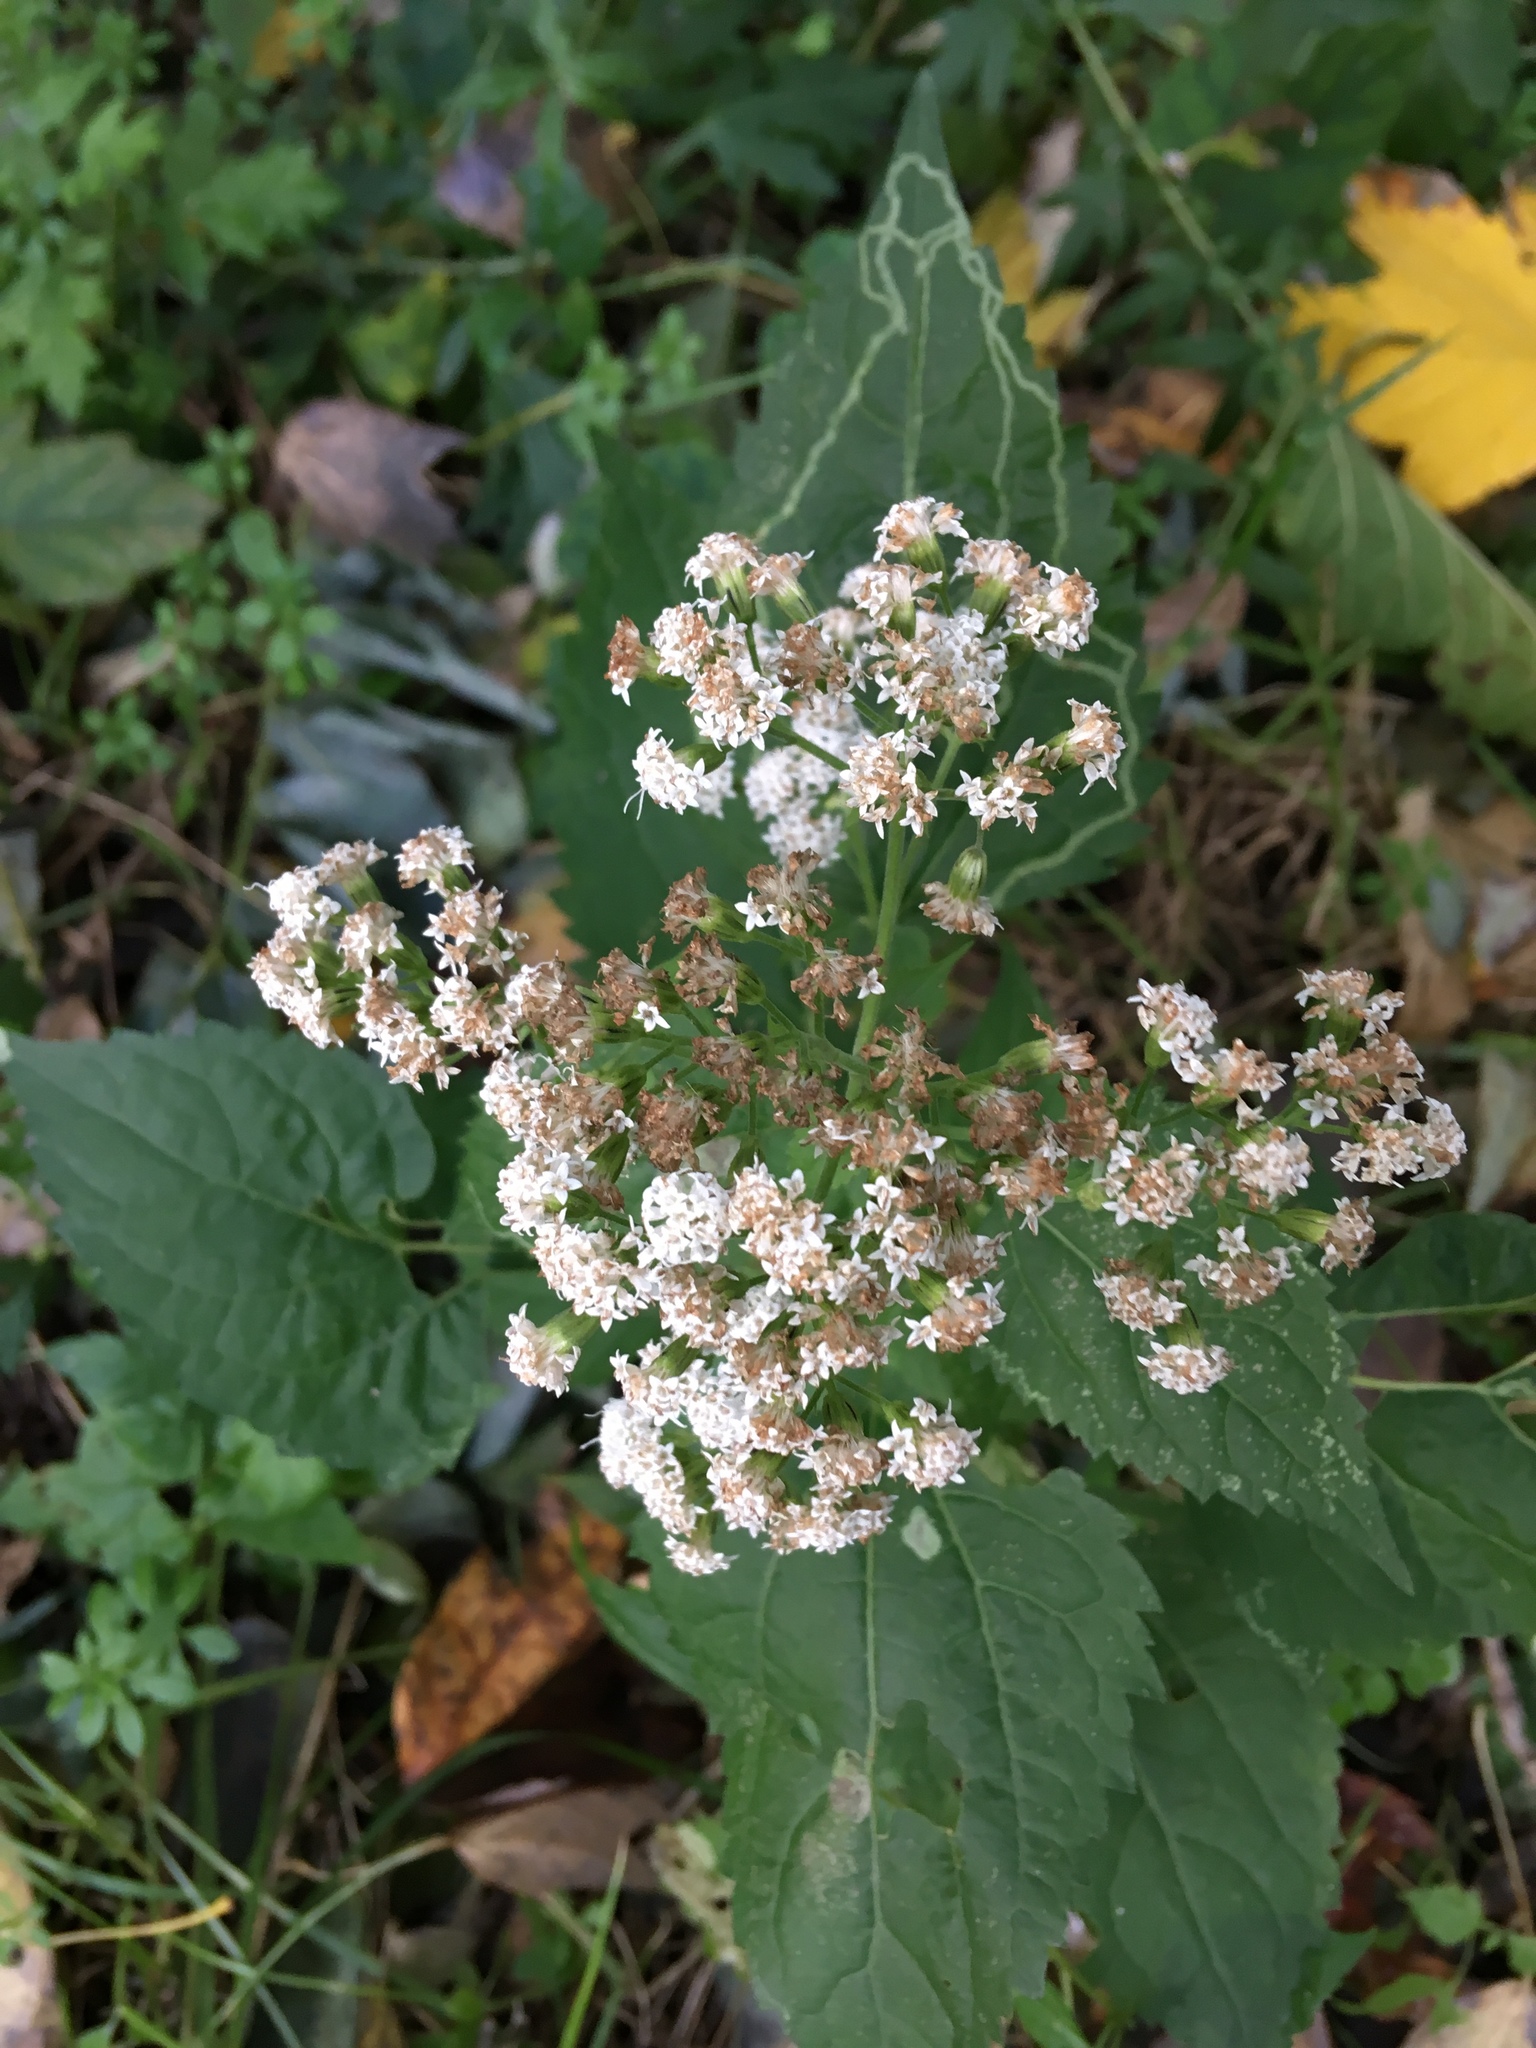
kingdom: Plantae
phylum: Tracheophyta
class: Magnoliopsida
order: Asterales
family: Asteraceae
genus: Ageratina
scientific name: Ageratina altissima
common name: White snakeroot
